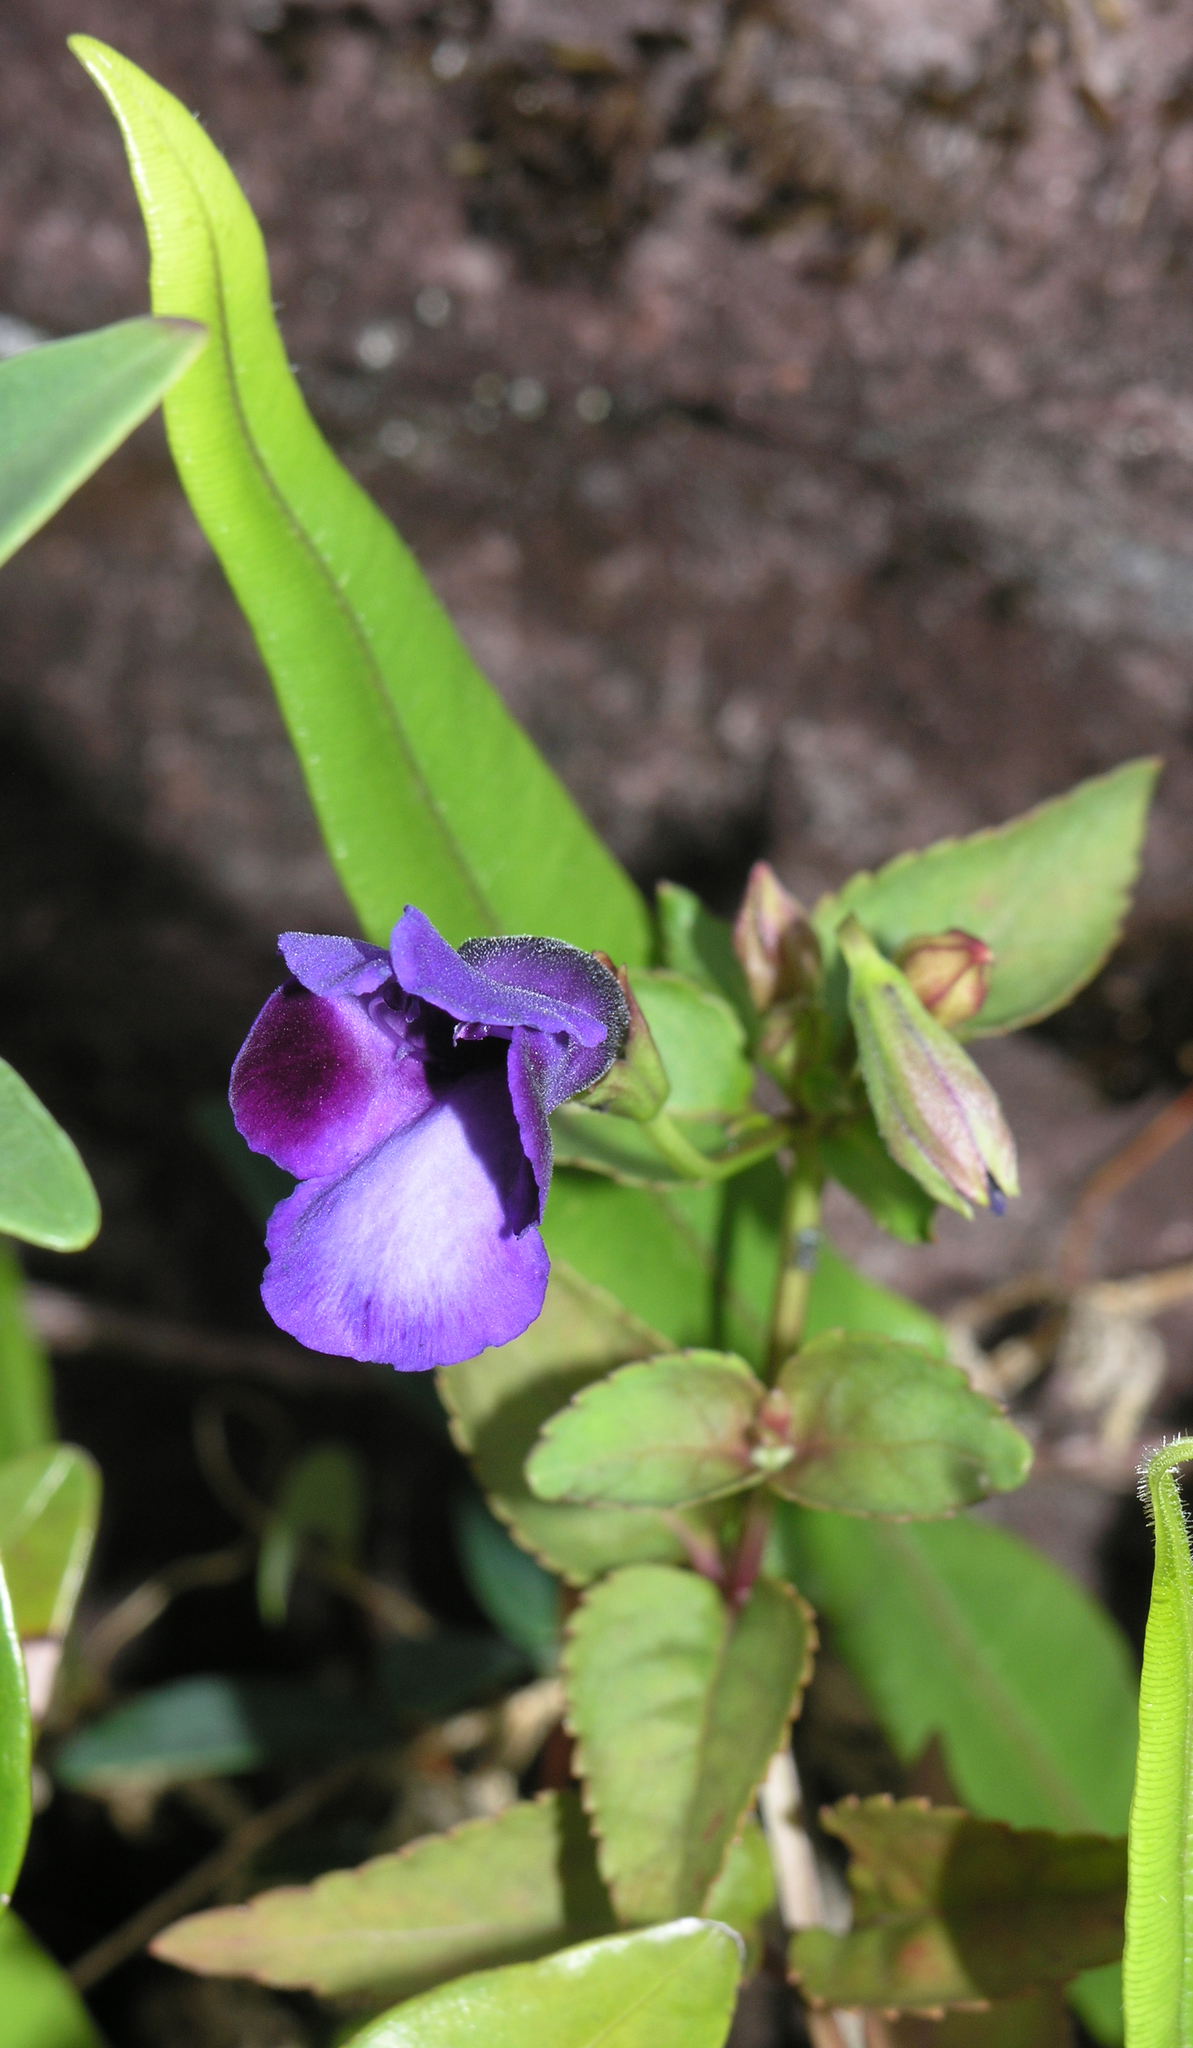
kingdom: Plantae
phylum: Tracheophyta
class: Magnoliopsida
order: Lamiales
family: Linderniaceae
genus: Torenia
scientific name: Torenia fournieri
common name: Bluewings
